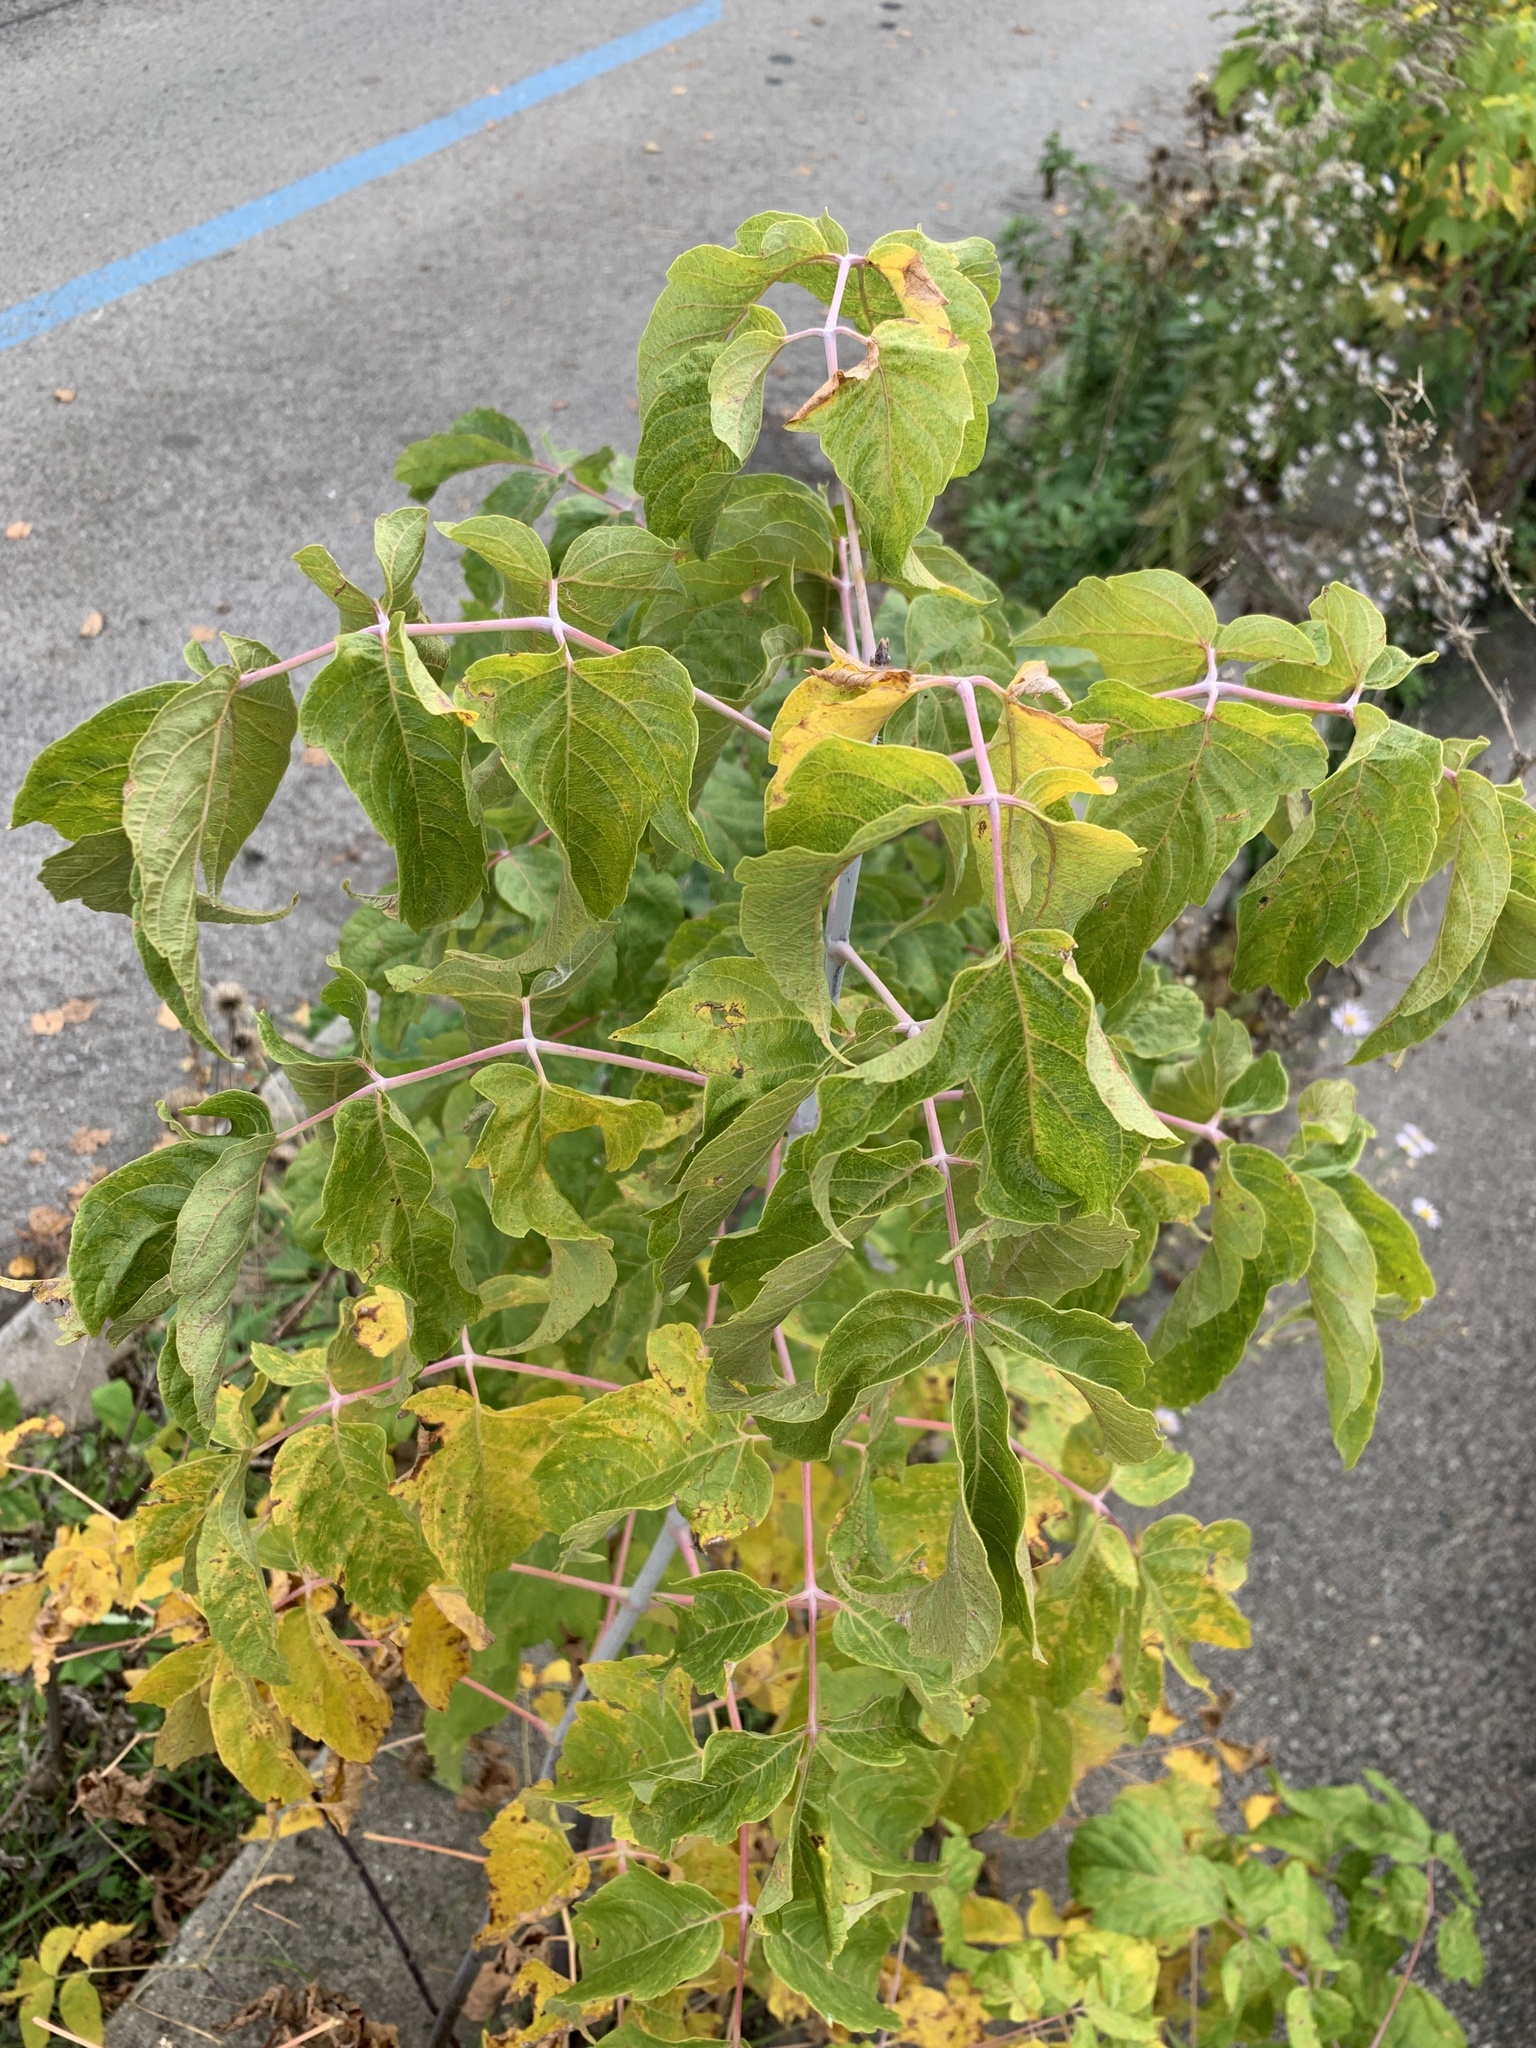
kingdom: Plantae
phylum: Tracheophyta
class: Magnoliopsida
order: Sapindales
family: Sapindaceae
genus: Acer
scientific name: Acer negundo
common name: Ashleaf maple
